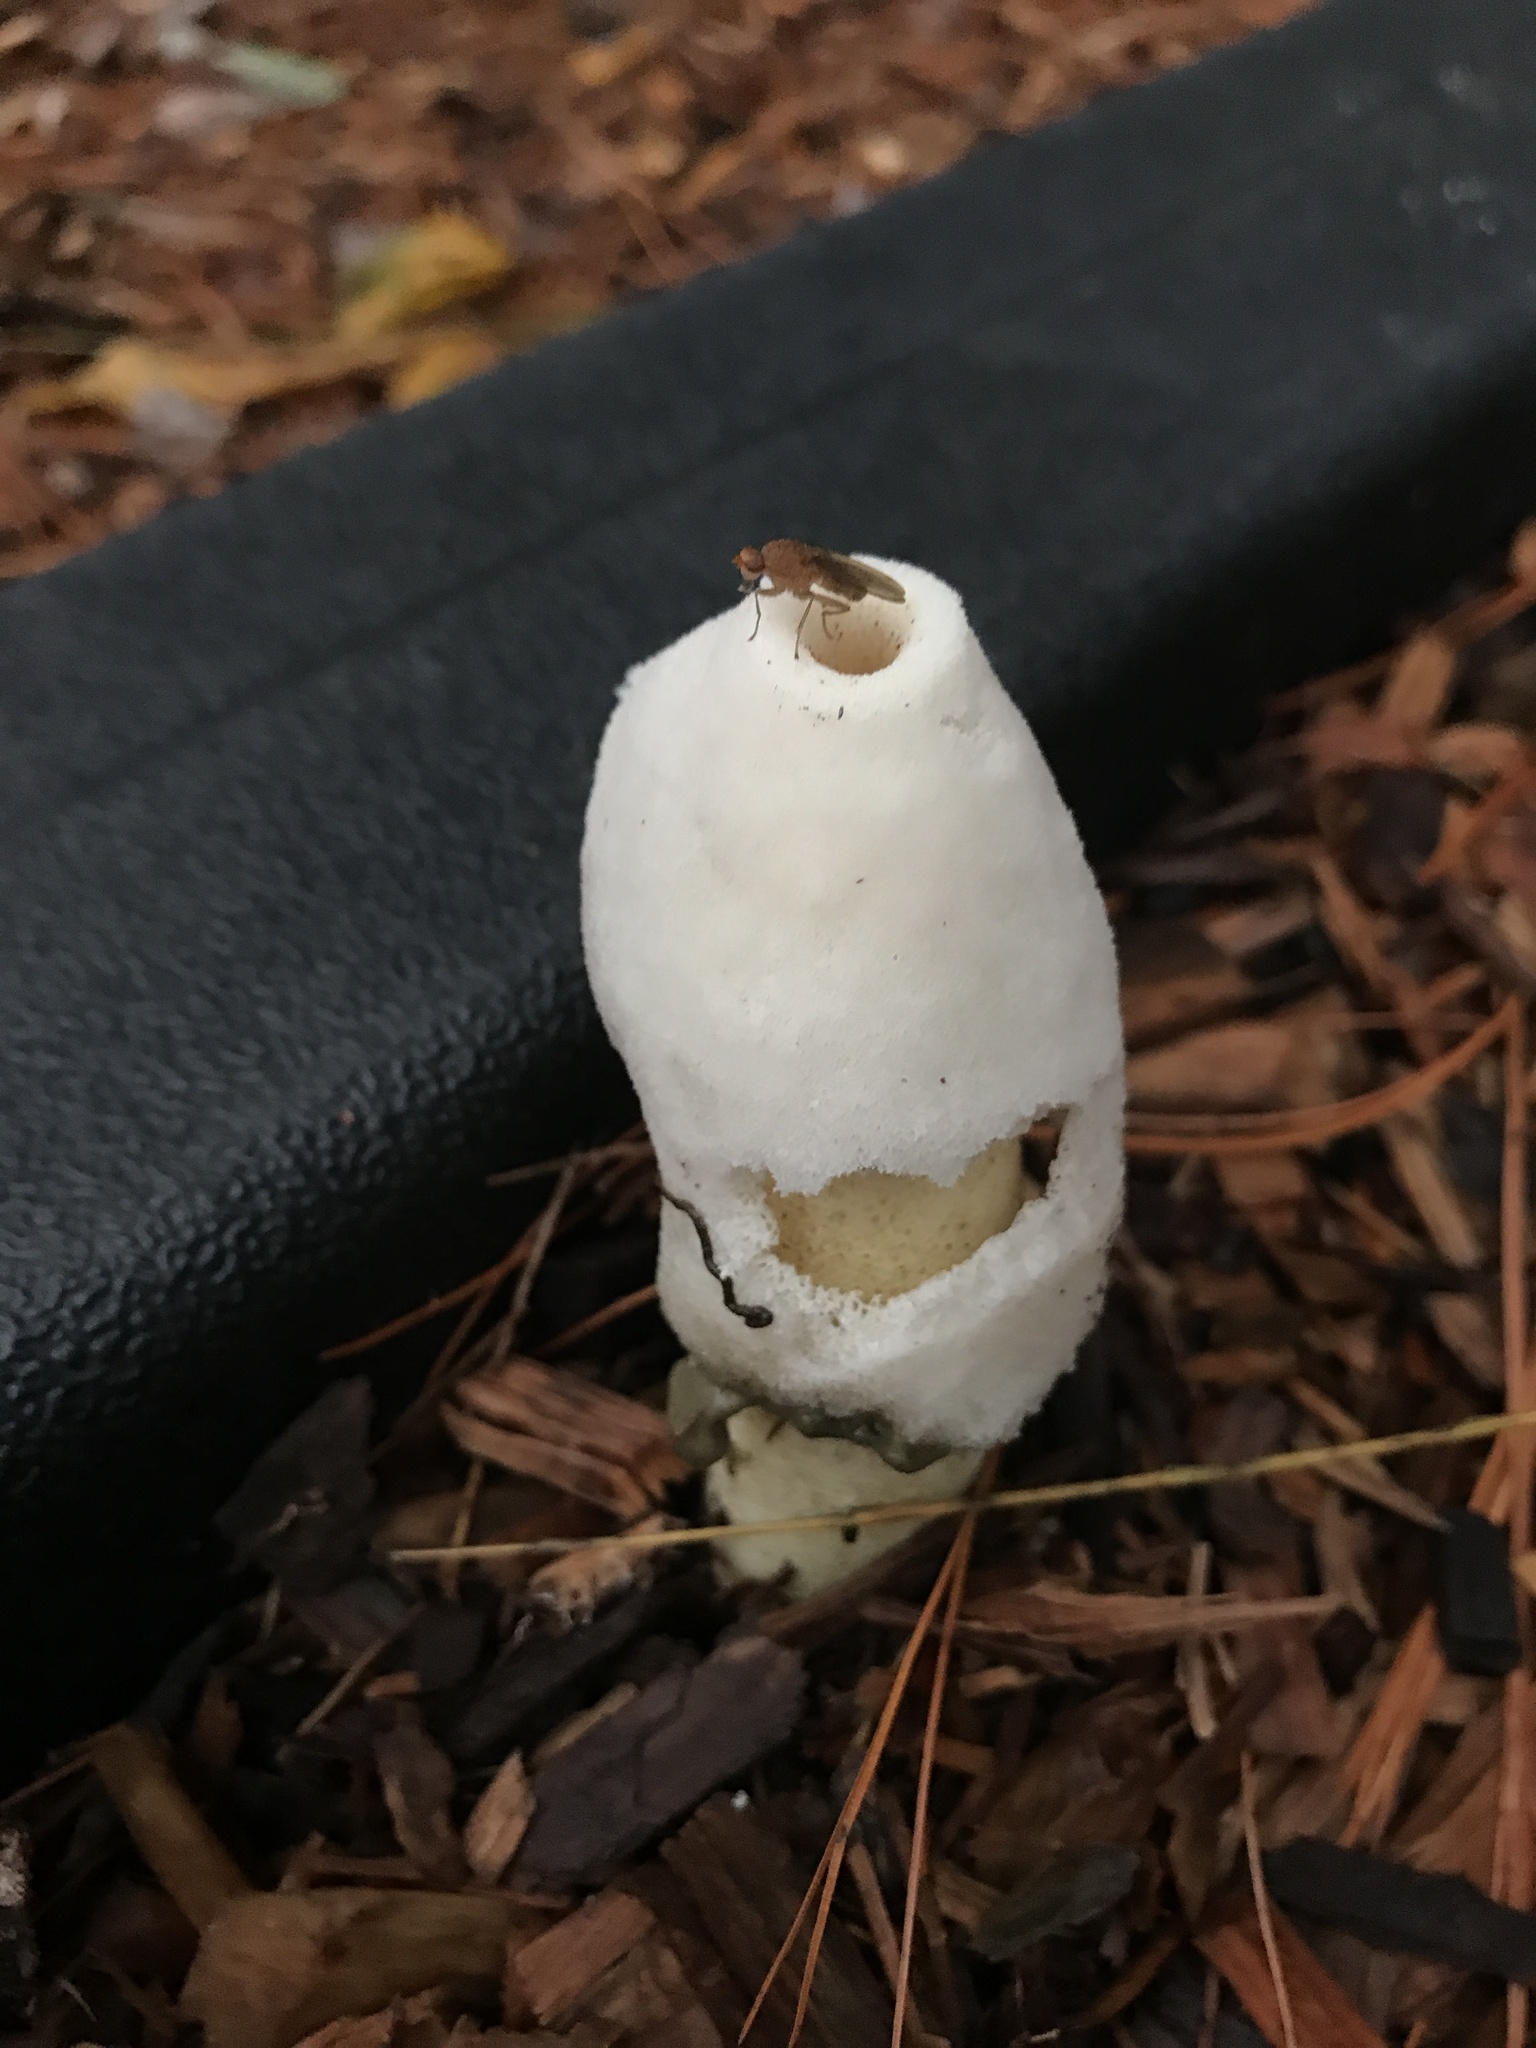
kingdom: Fungi
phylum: Basidiomycota
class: Agaricomycetes
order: Phallales
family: Phallaceae
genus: Phallus
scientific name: Phallus ravenelii
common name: Ravenel's stinkhorn
